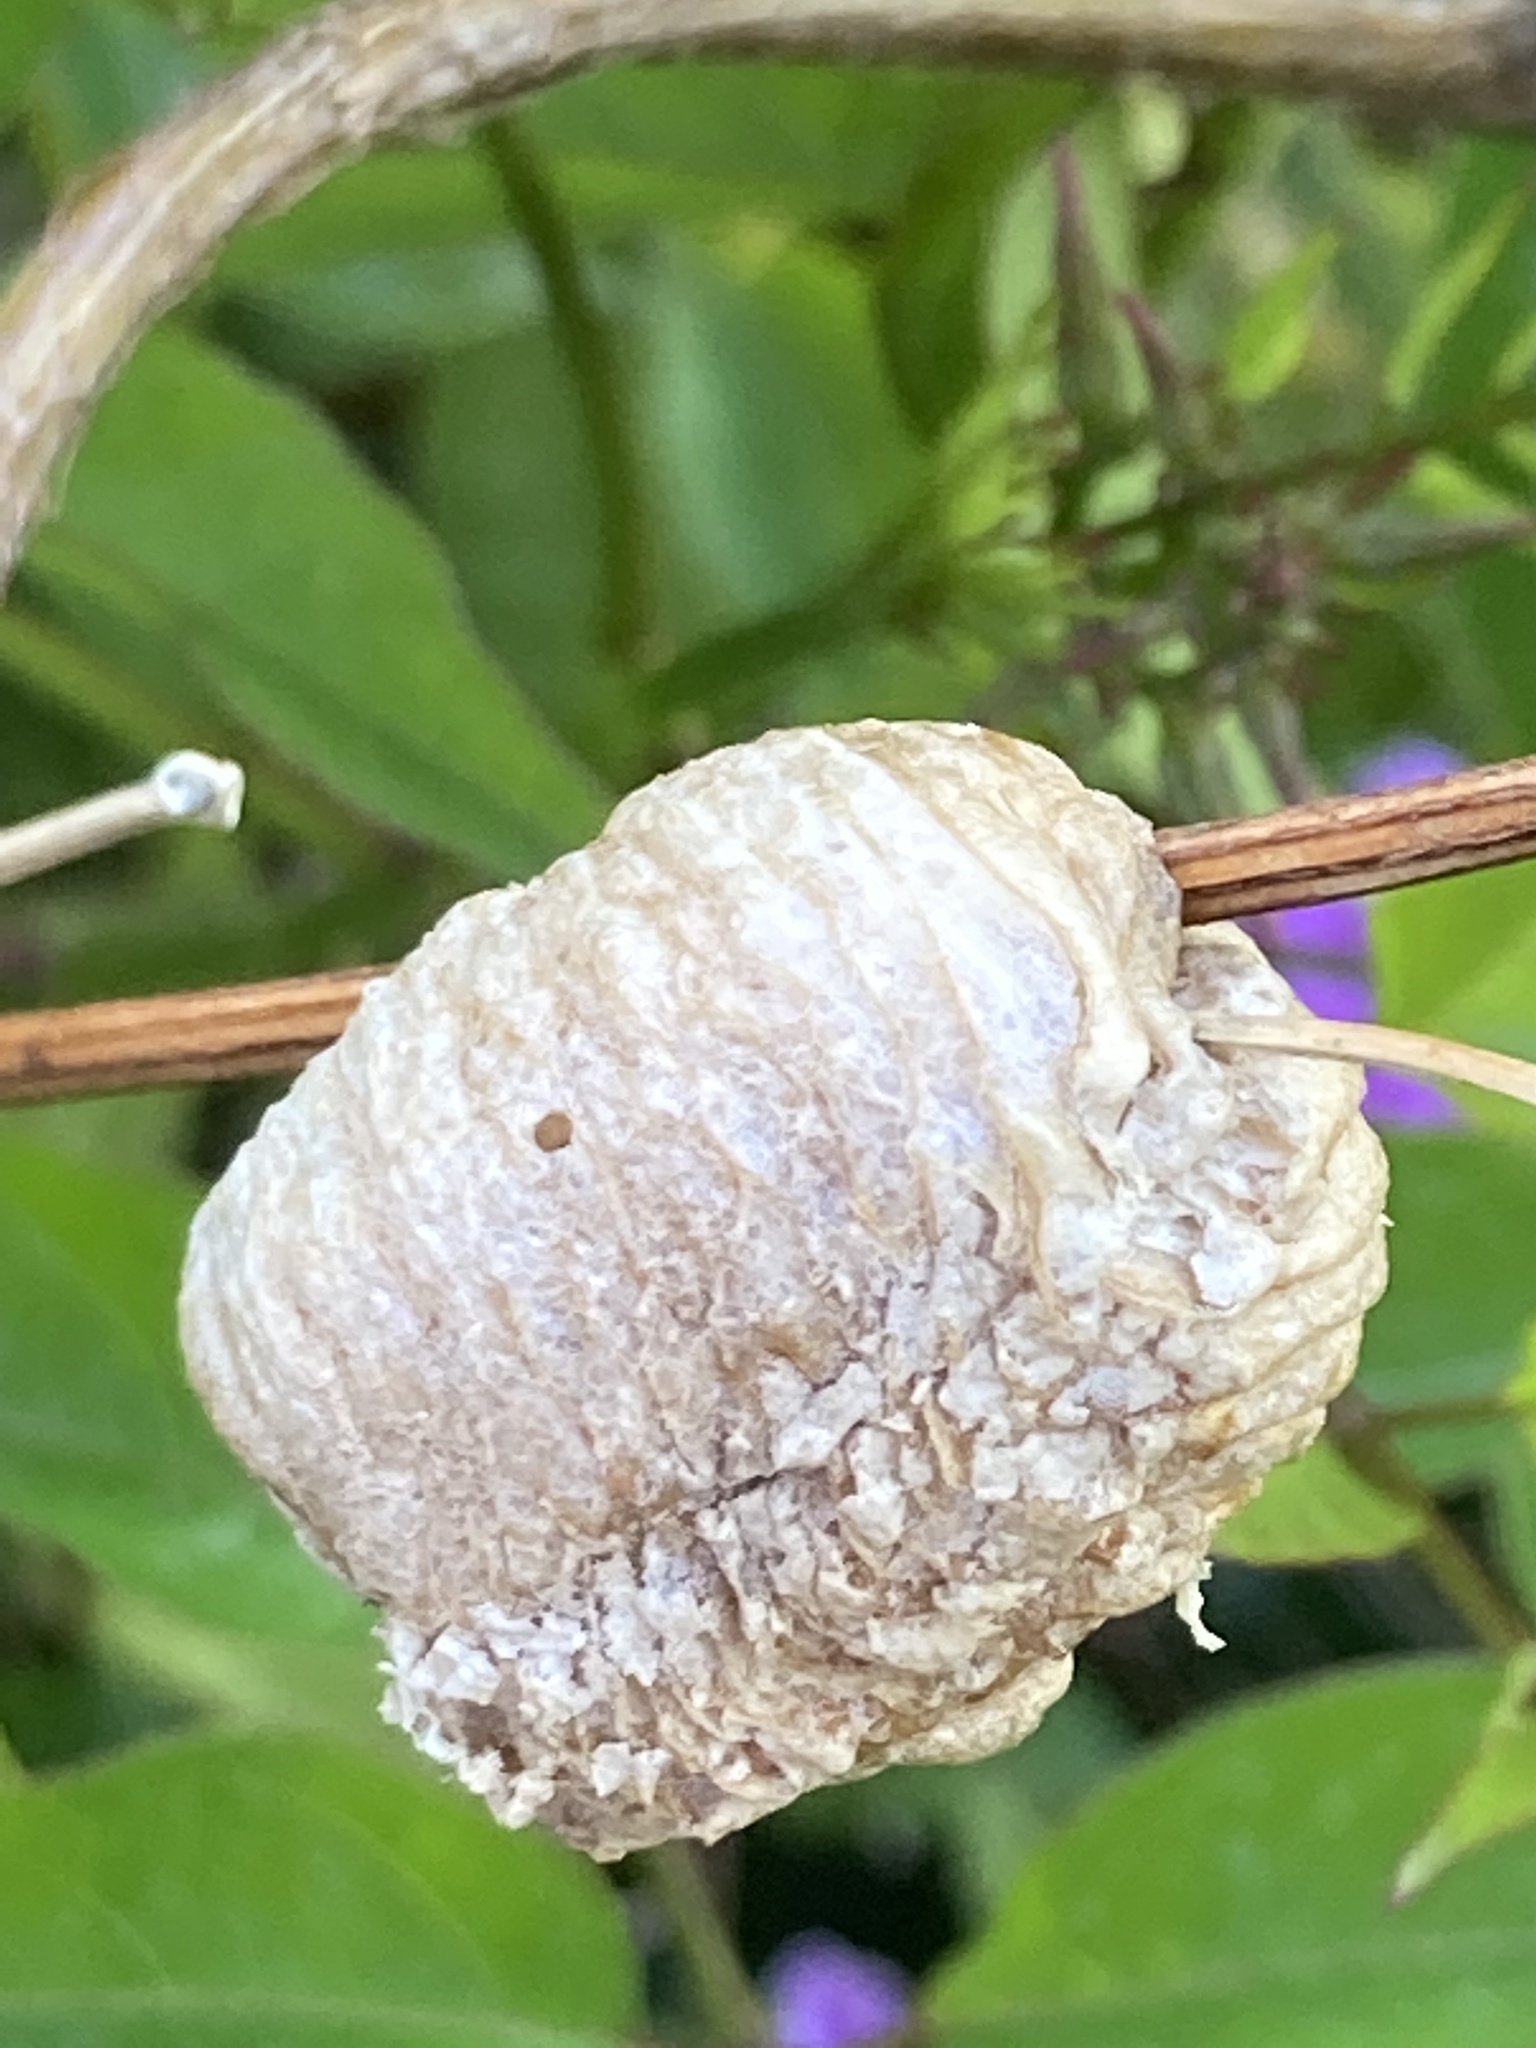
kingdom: Animalia
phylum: Arthropoda
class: Insecta
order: Mantodea
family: Mantidae
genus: Sphodromantis
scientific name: Sphodromantis viridis
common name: Giant african mantis
